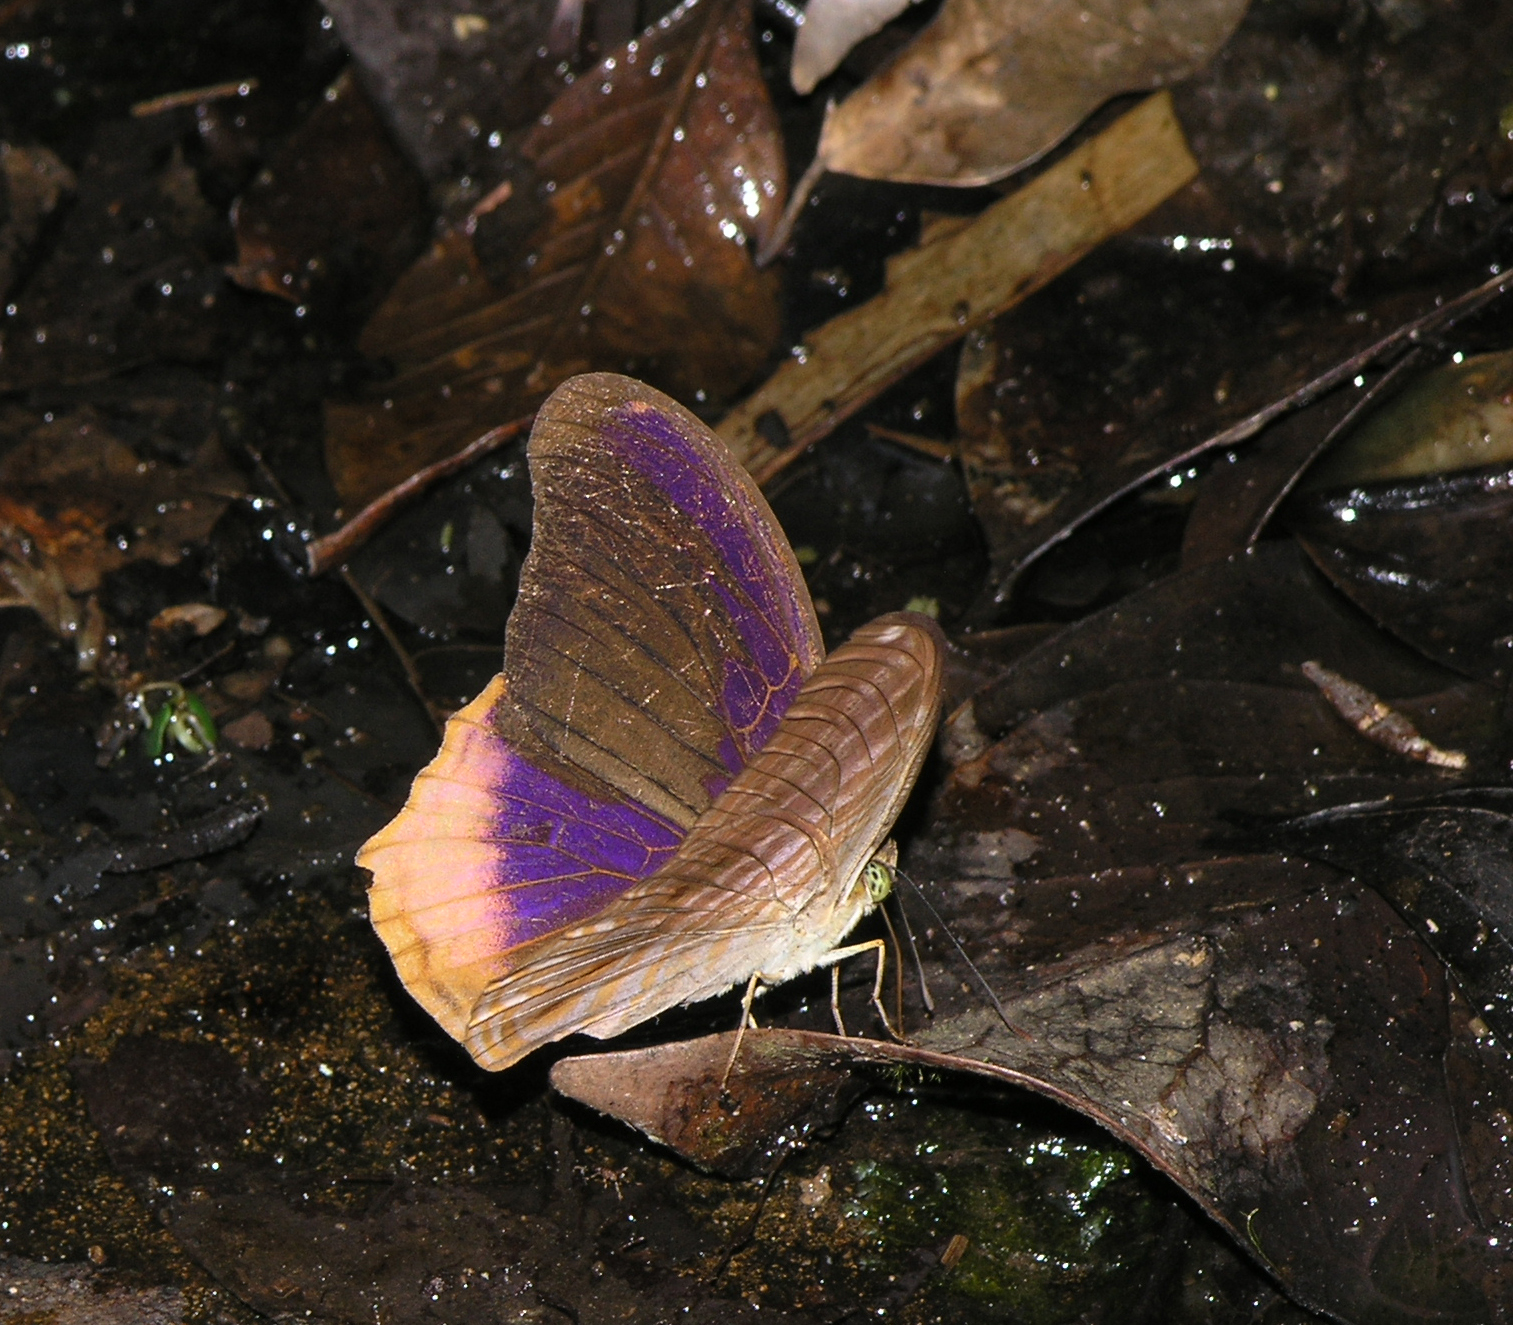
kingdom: Animalia
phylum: Arthropoda
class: Insecta
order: Lepidoptera
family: Nymphalidae
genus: Terinos
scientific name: Terinos terpander
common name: Royal assyrian
